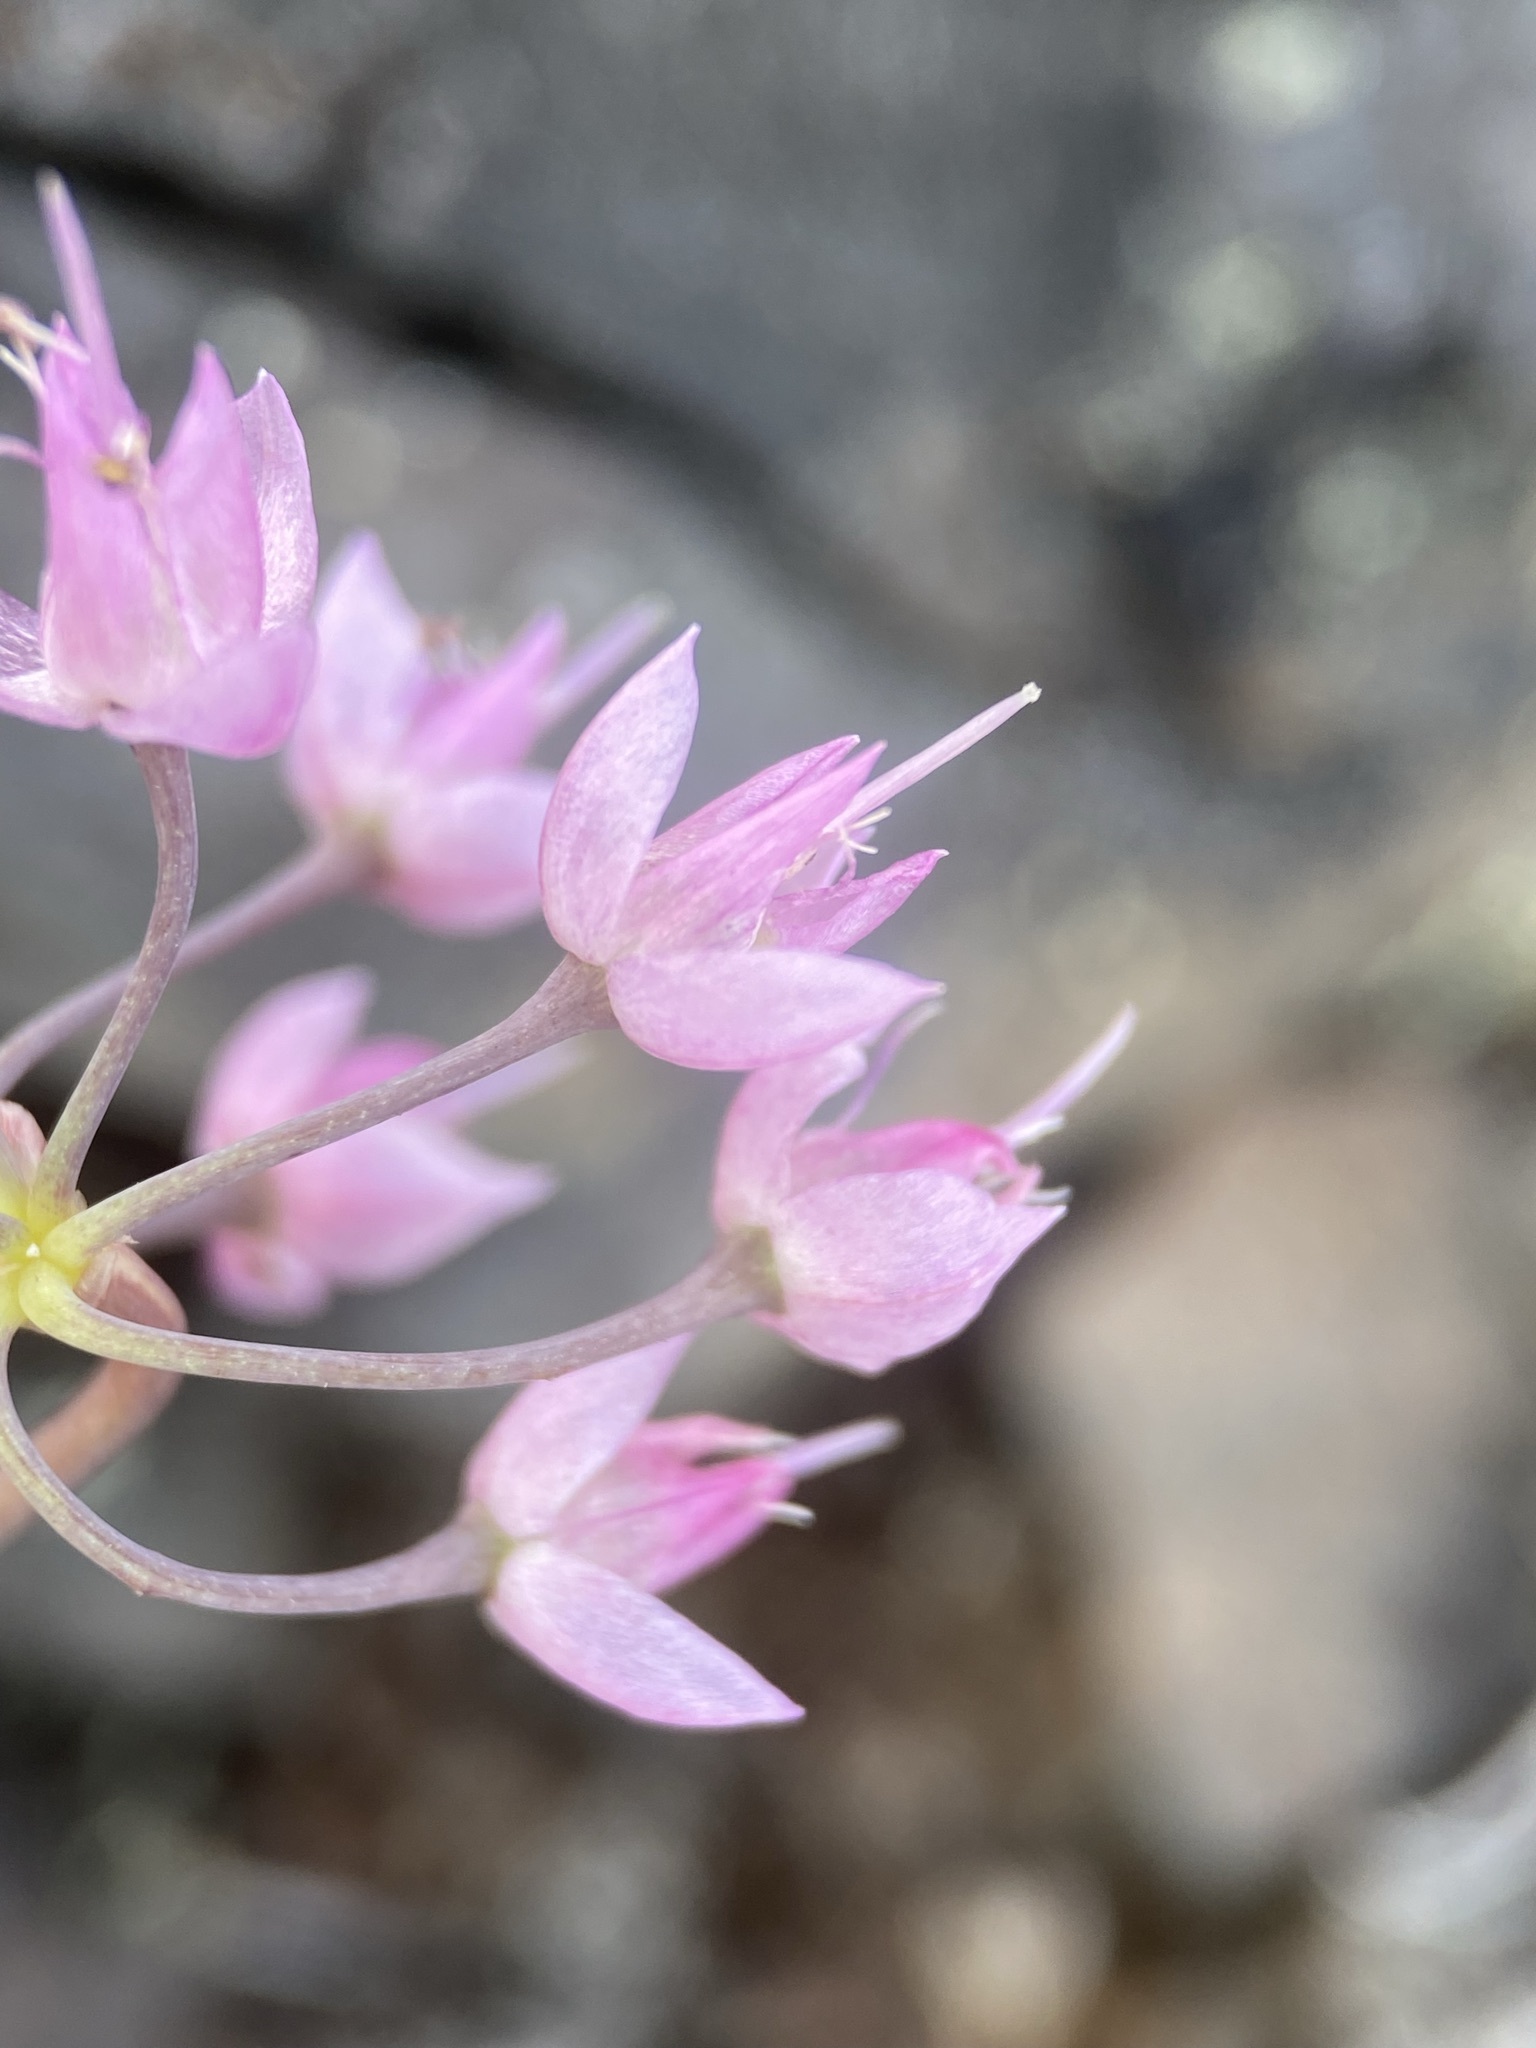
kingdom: Plantae
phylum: Tracheophyta
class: Liliopsida
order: Asparagales
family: Amaryllidaceae
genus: Allium
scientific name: Allium cernuum
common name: Nodding onion
